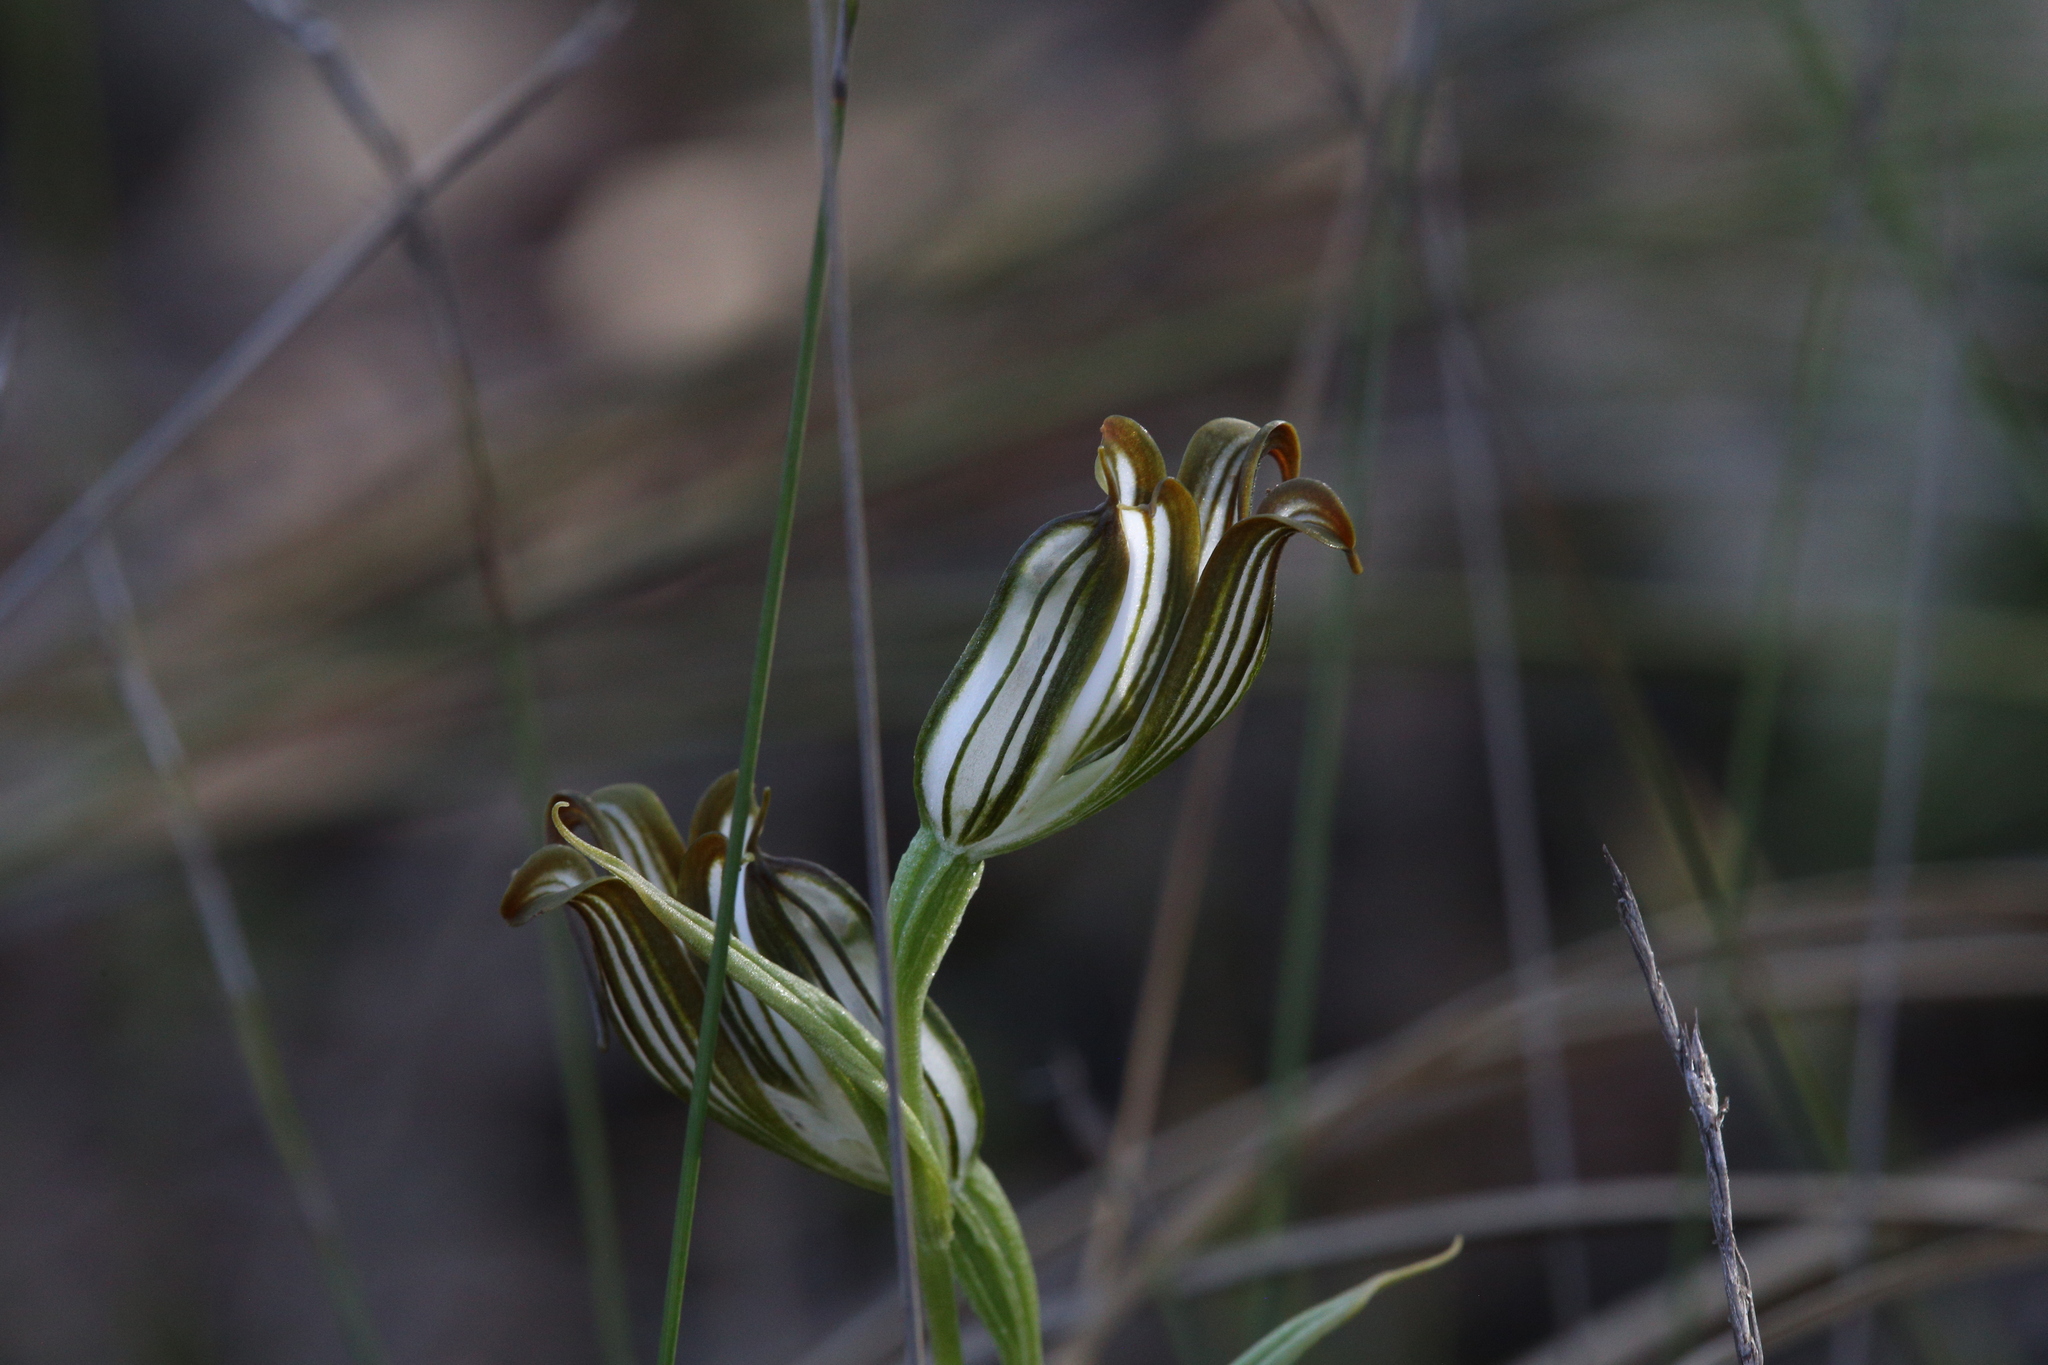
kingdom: Plantae
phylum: Tracheophyta
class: Liliopsida
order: Asparagales
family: Orchidaceae
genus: Pterostylis
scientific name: Pterostylis recurva
